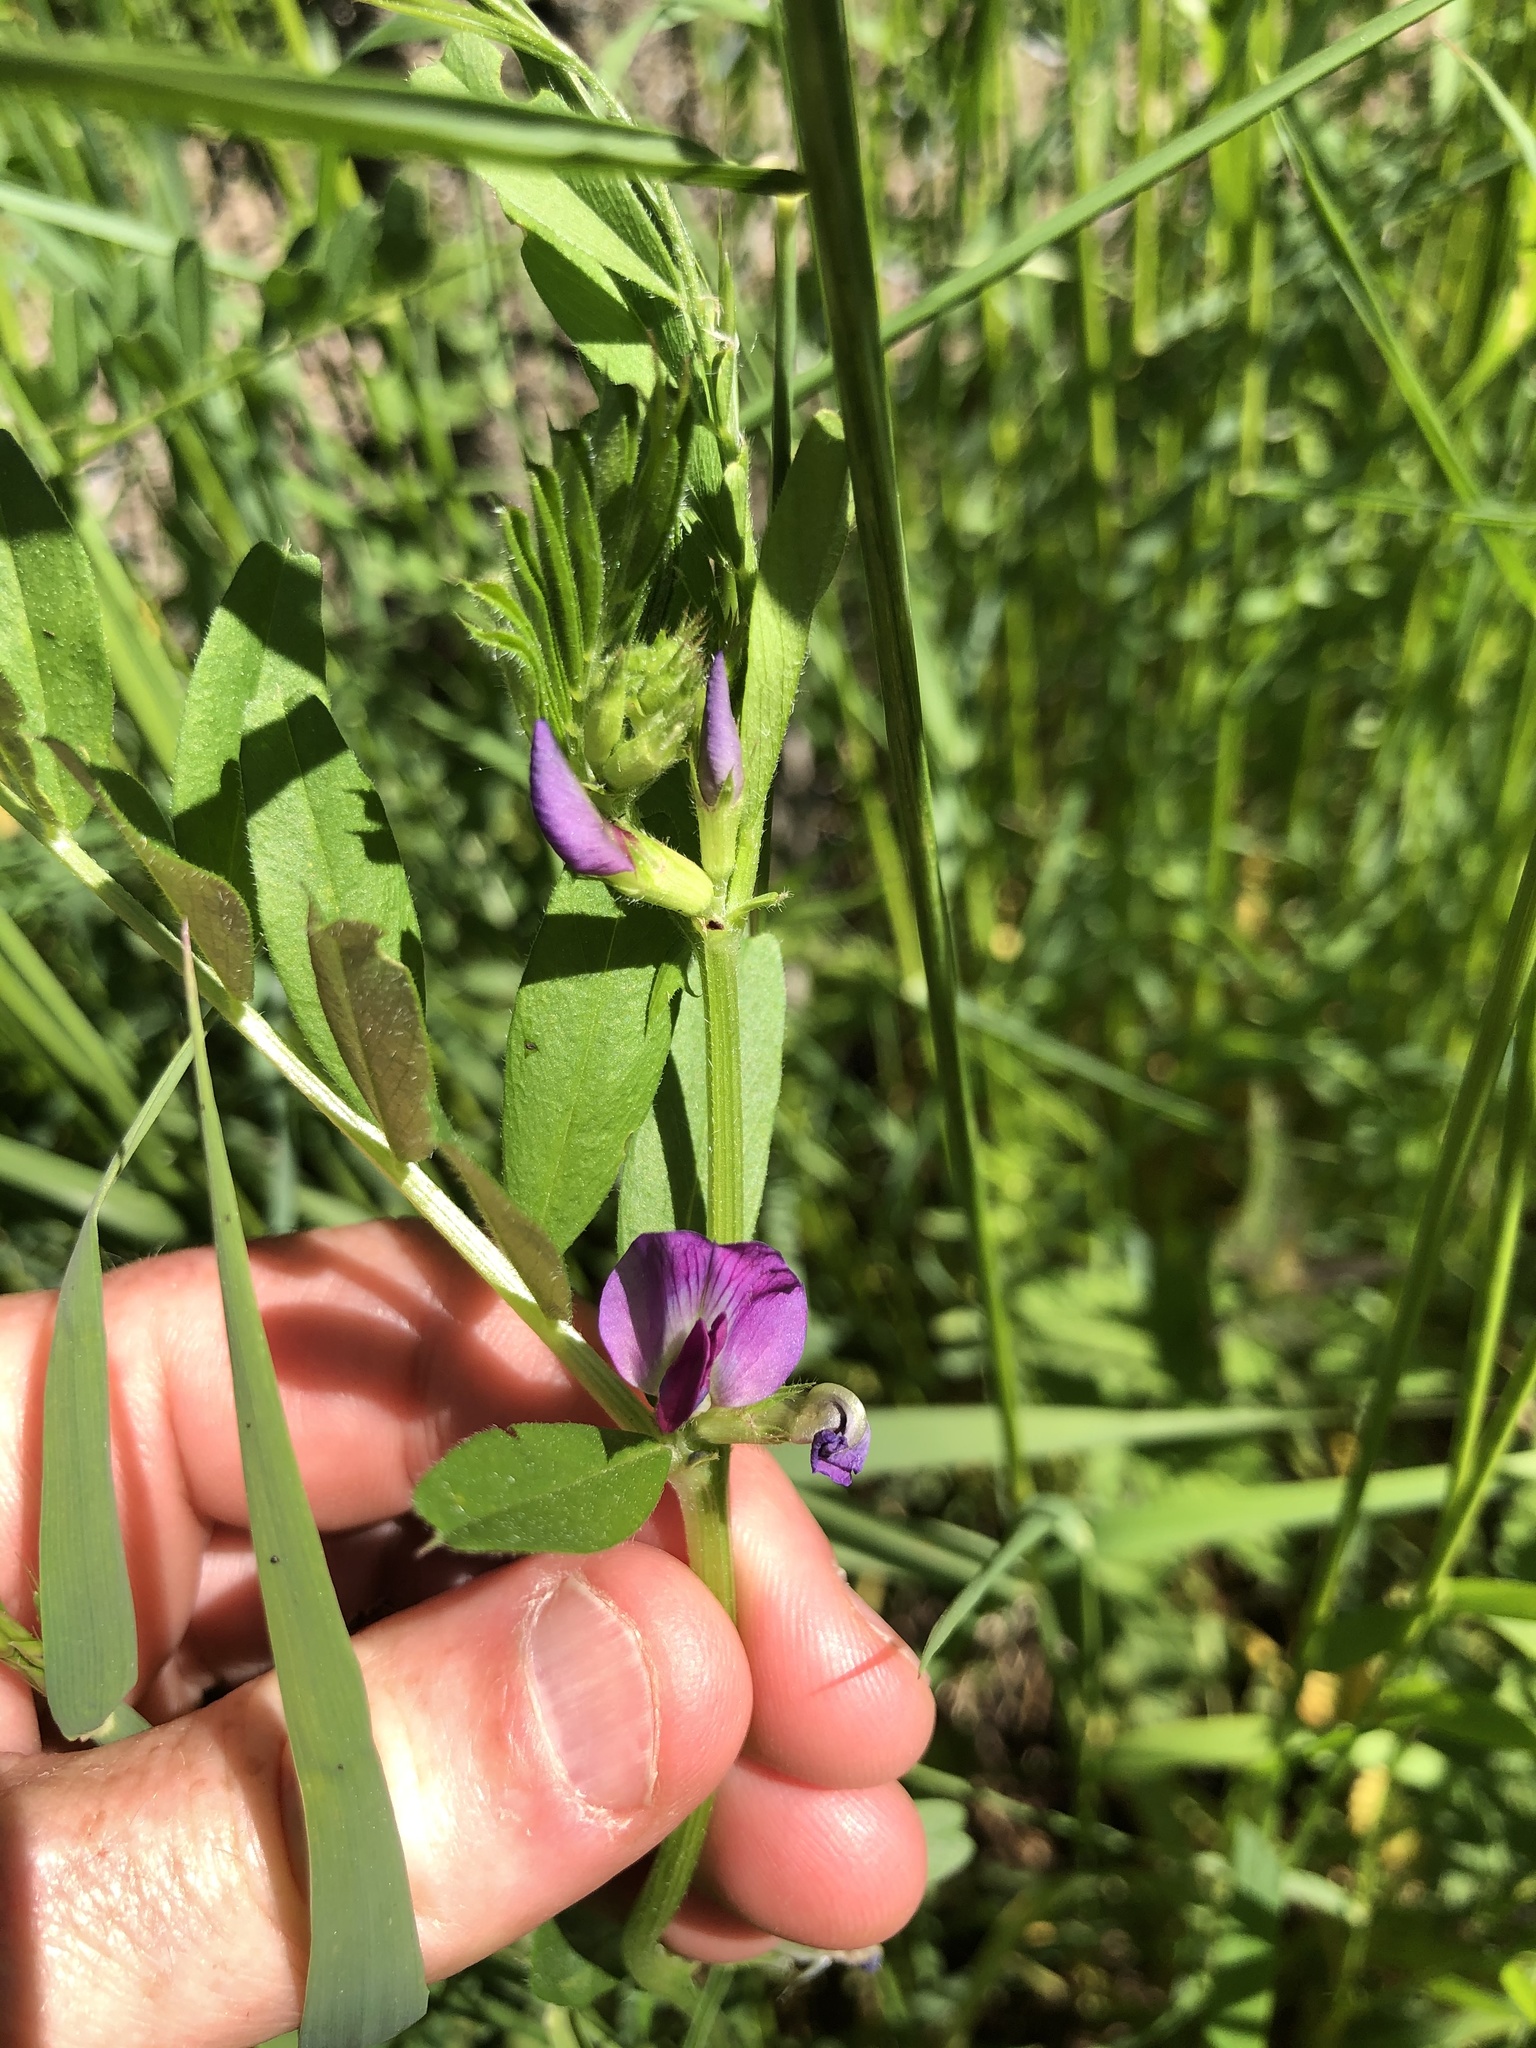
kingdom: Plantae
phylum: Tracheophyta
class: Magnoliopsida
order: Fabales
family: Fabaceae
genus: Vicia
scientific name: Vicia sativa
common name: Garden vetch
